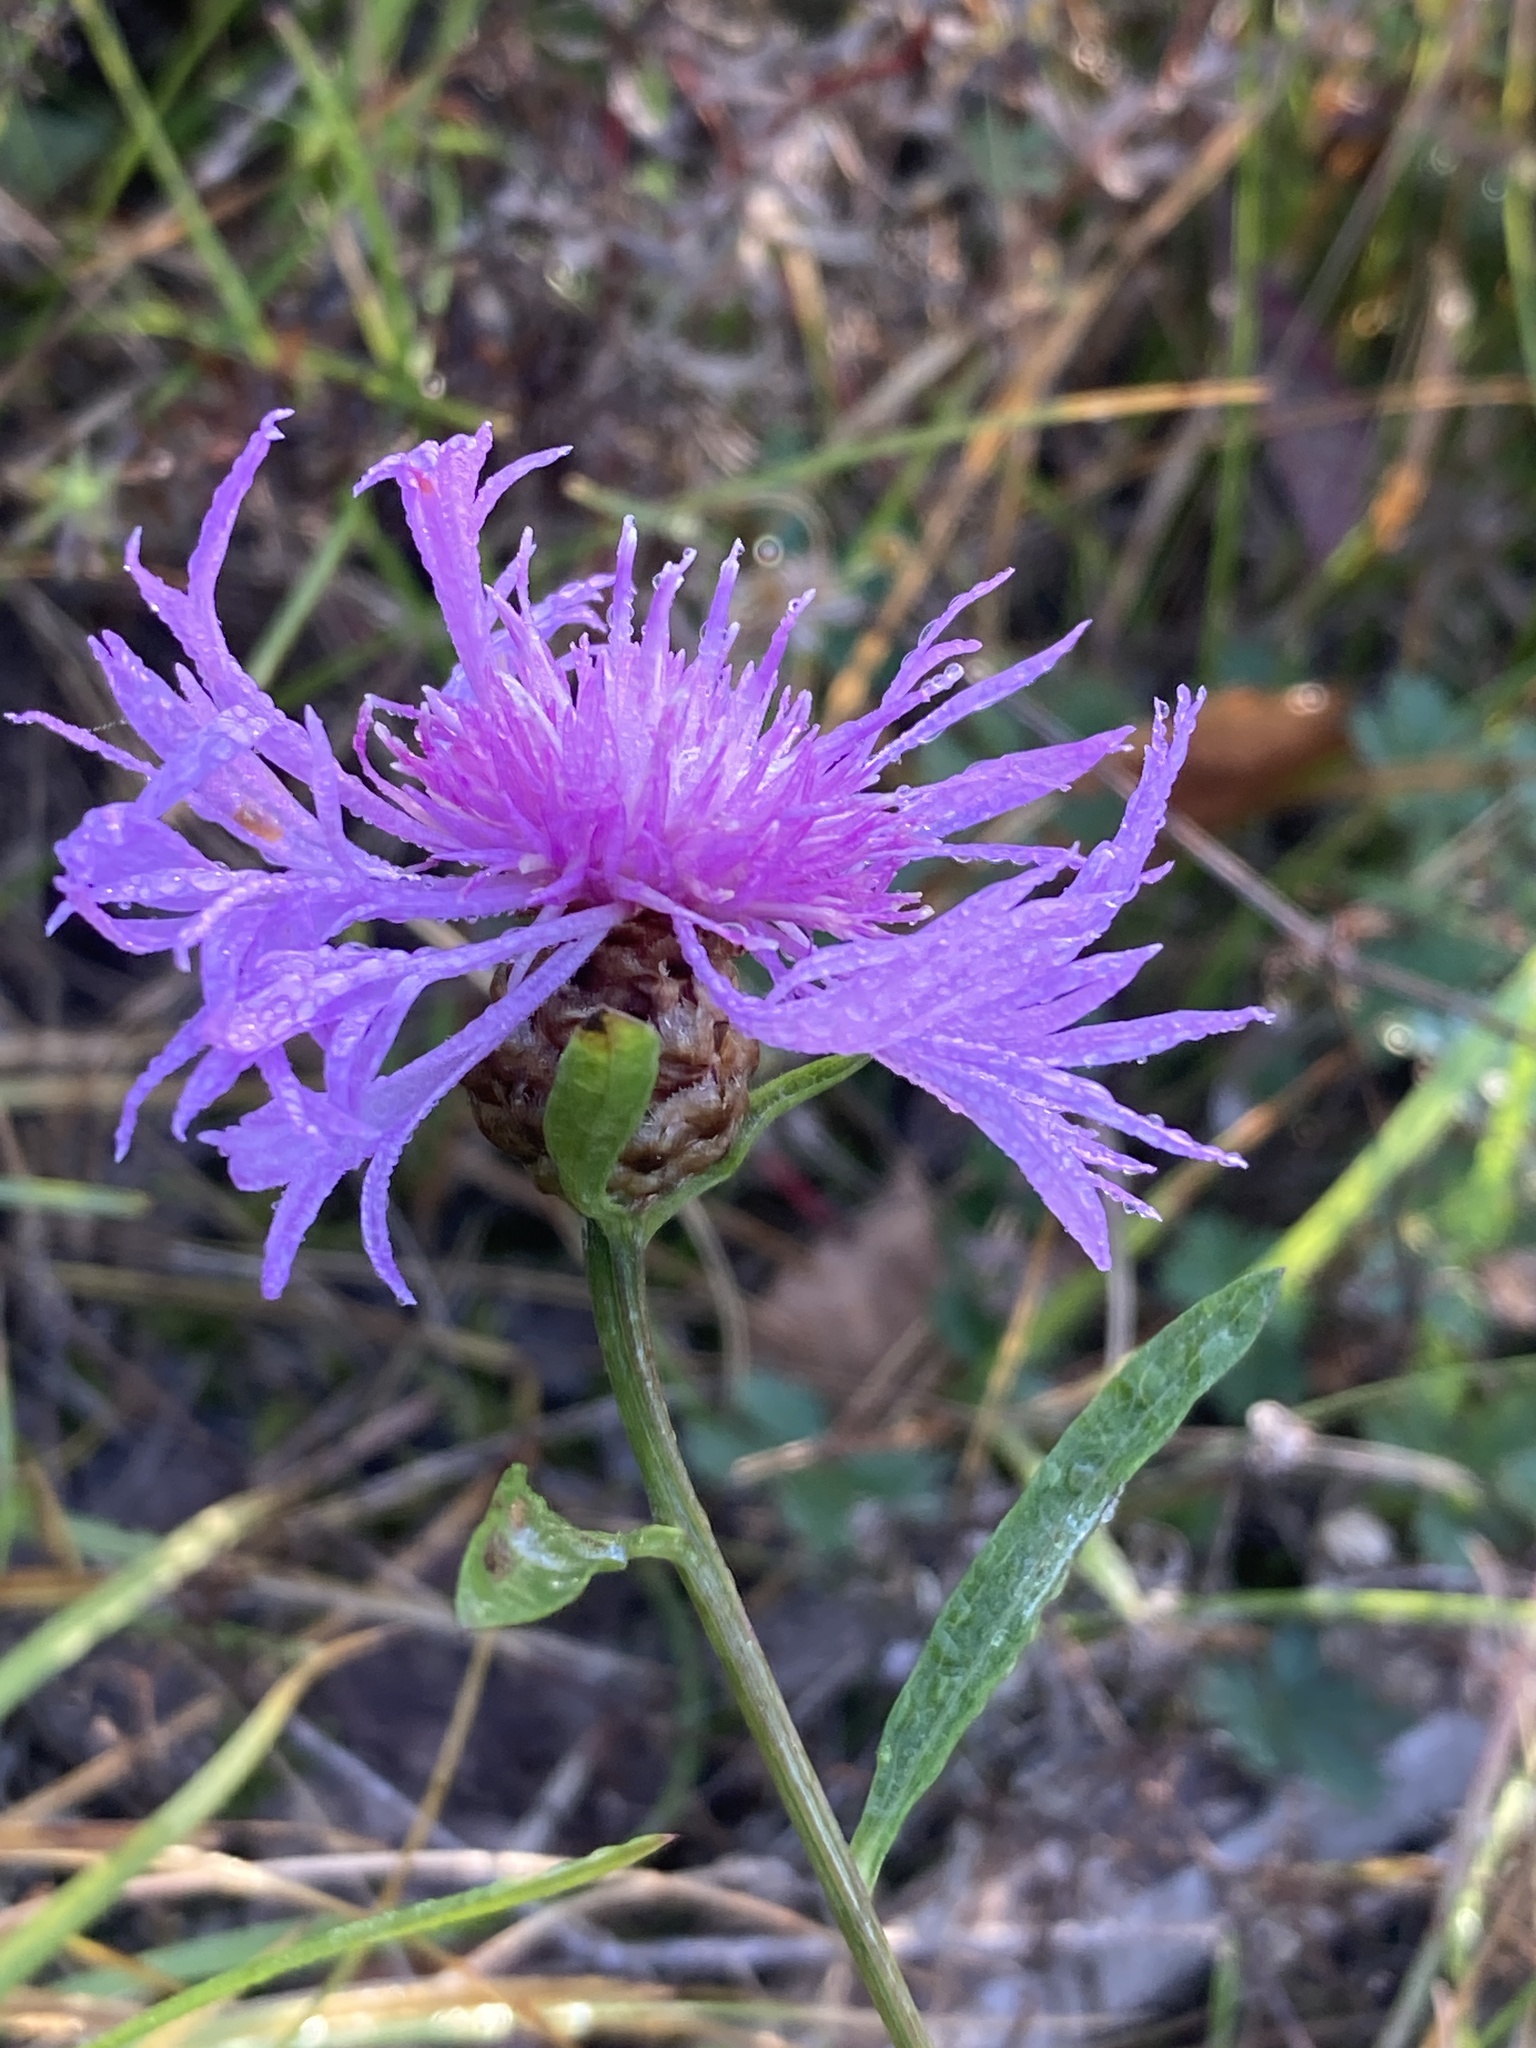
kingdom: Plantae
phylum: Tracheophyta
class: Magnoliopsida
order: Asterales
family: Asteraceae
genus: Centaurea
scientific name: Centaurea jacea
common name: Brown knapweed
